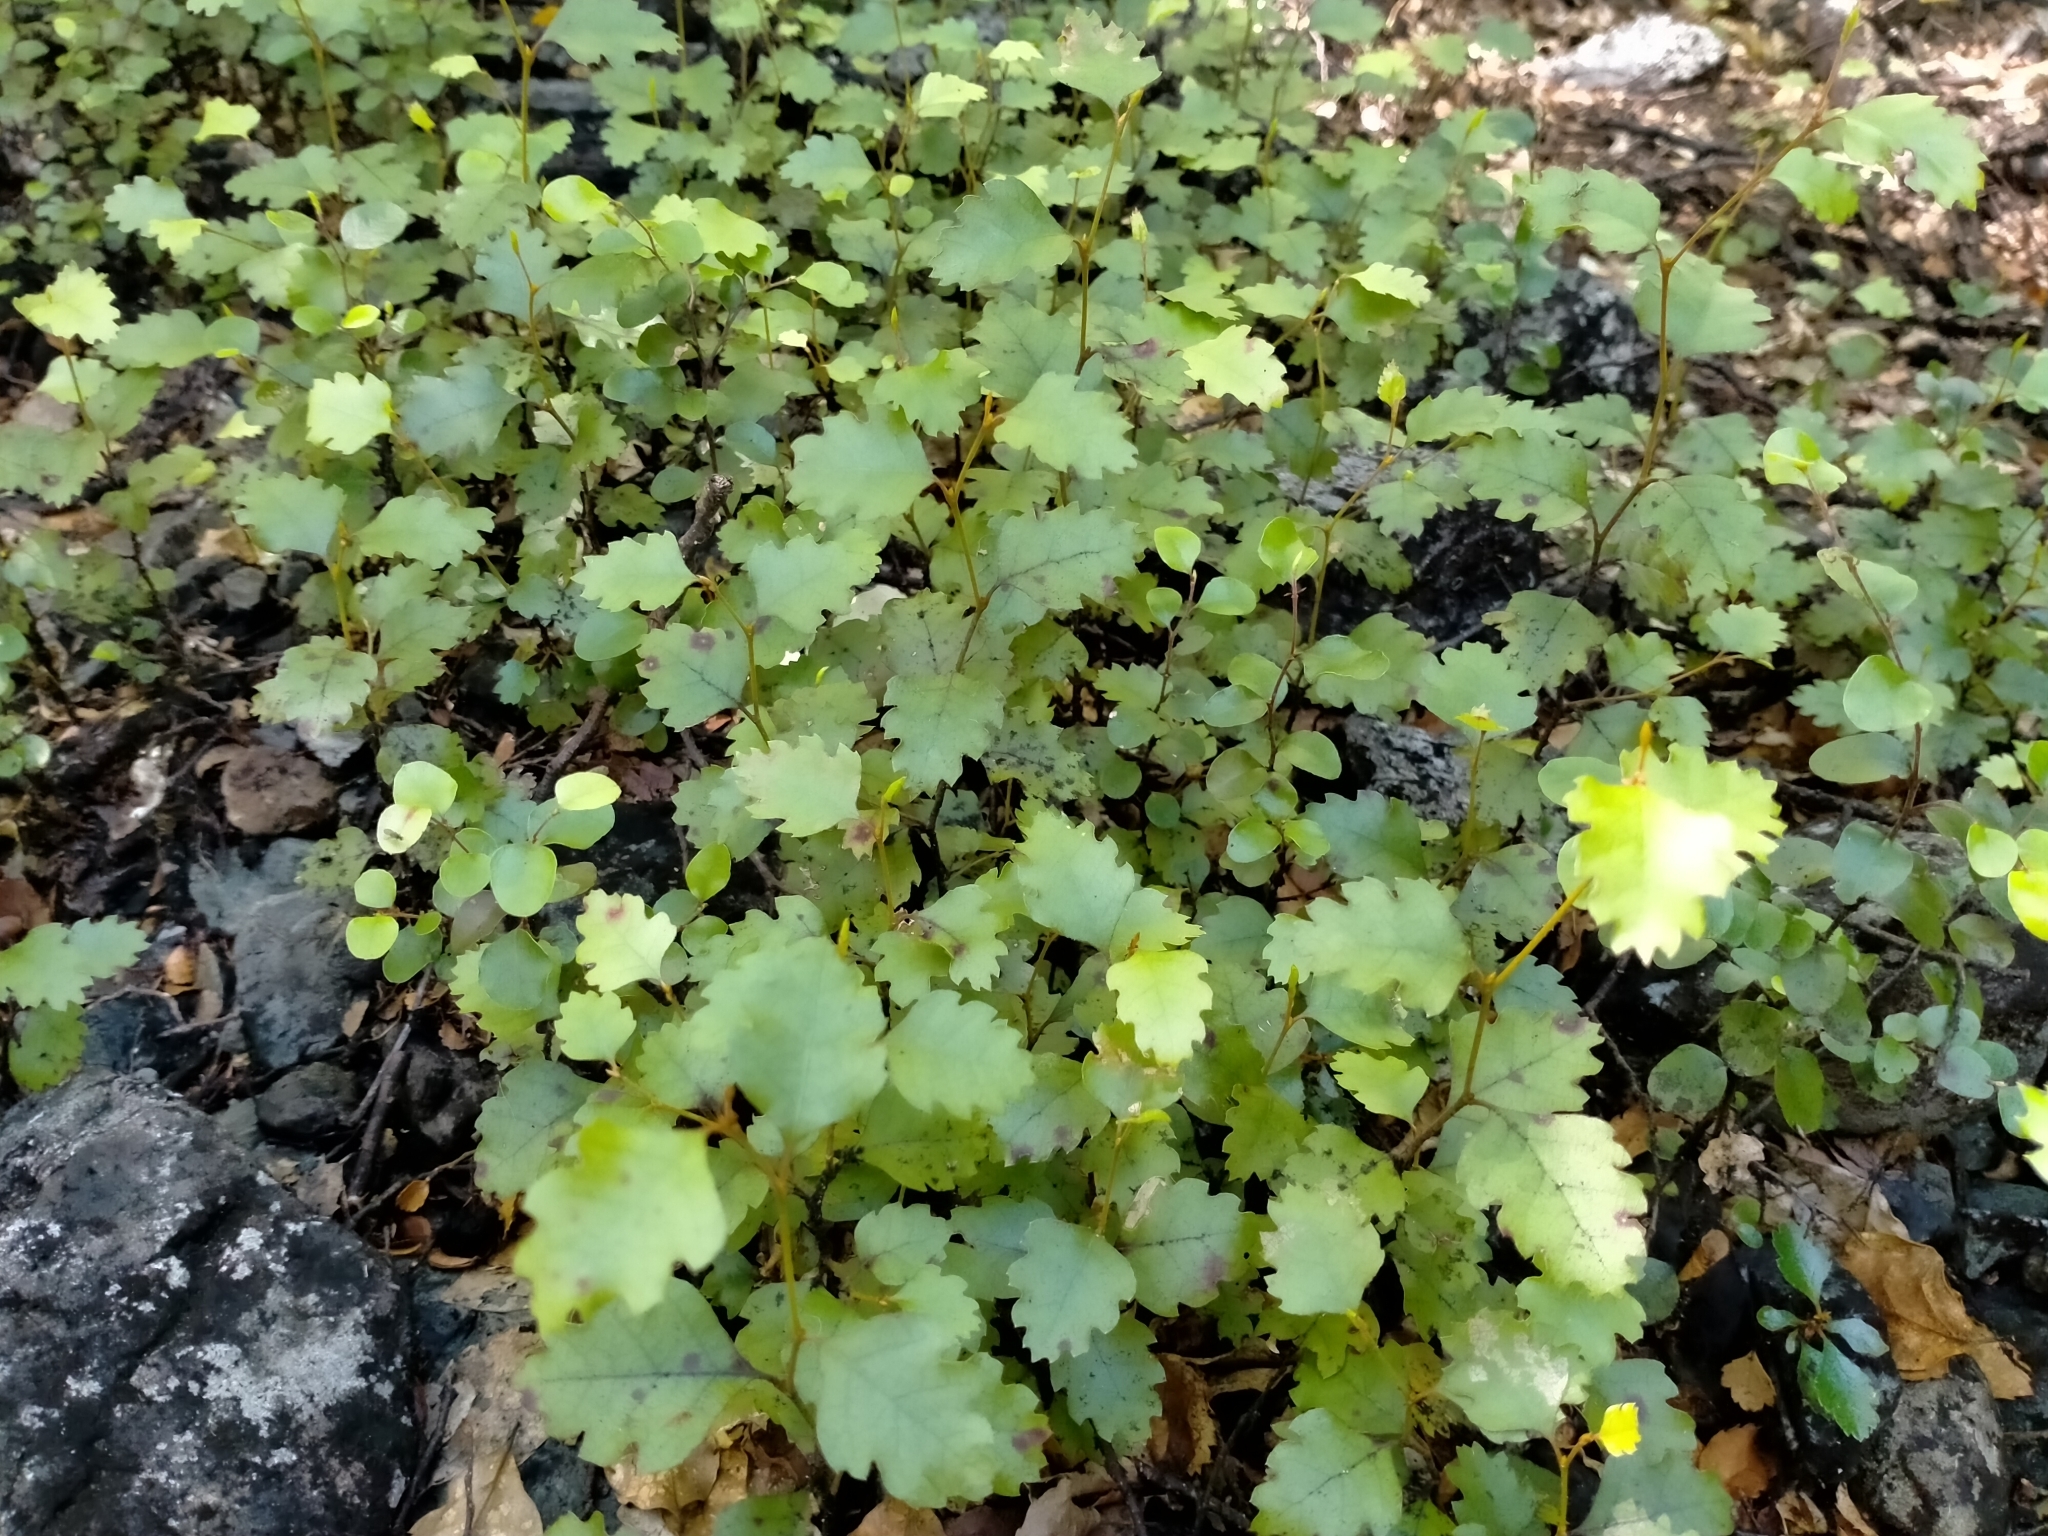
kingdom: Plantae
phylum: Tracheophyta
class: Magnoliopsida
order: Fagales
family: Nothofagaceae
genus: Nothofagus
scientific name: Nothofagus fusca
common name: Red beech
